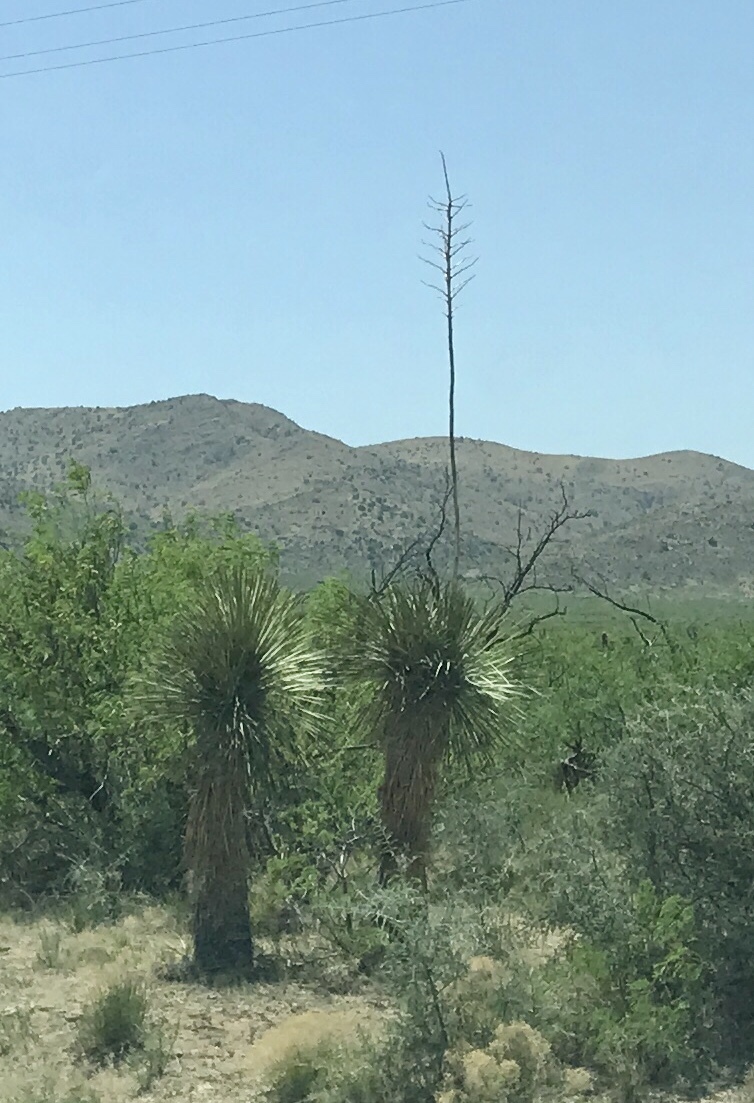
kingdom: Plantae
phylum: Tracheophyta
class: Liliopsida
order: Asparagales
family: Asparagaceae
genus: Yucca
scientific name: Yucca elata
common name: Palmella
